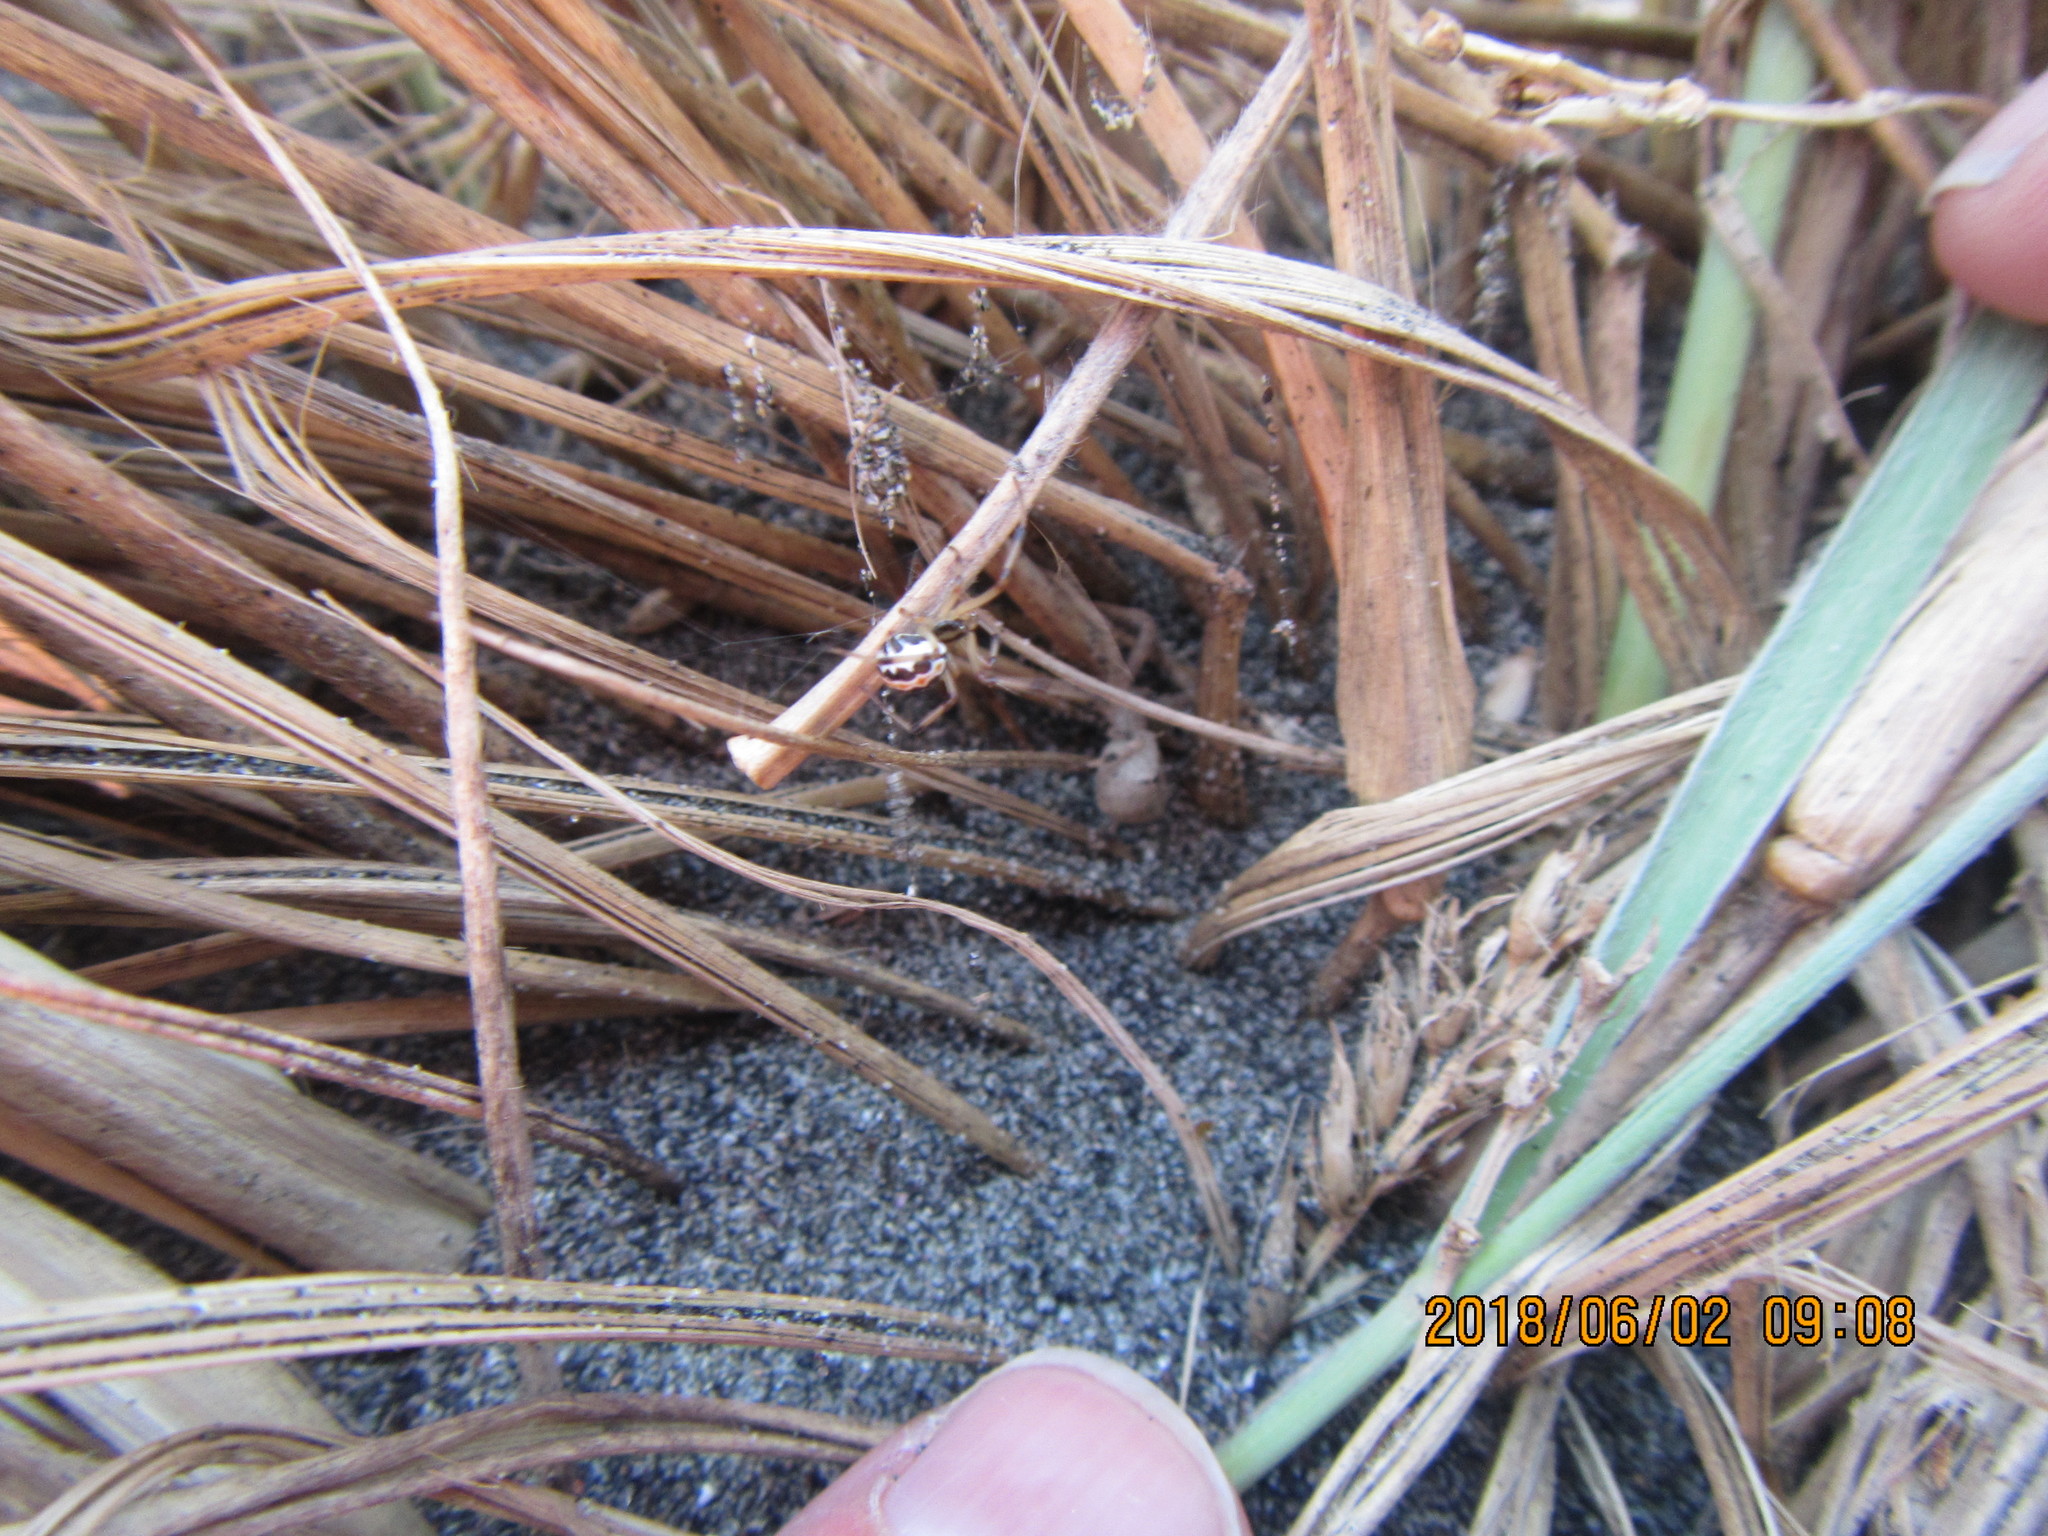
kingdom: Animalia
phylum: Arthropoda
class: Arachnida
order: Araneae
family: Theridiidae
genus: Latrodectus
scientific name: Latrodectus katipo
